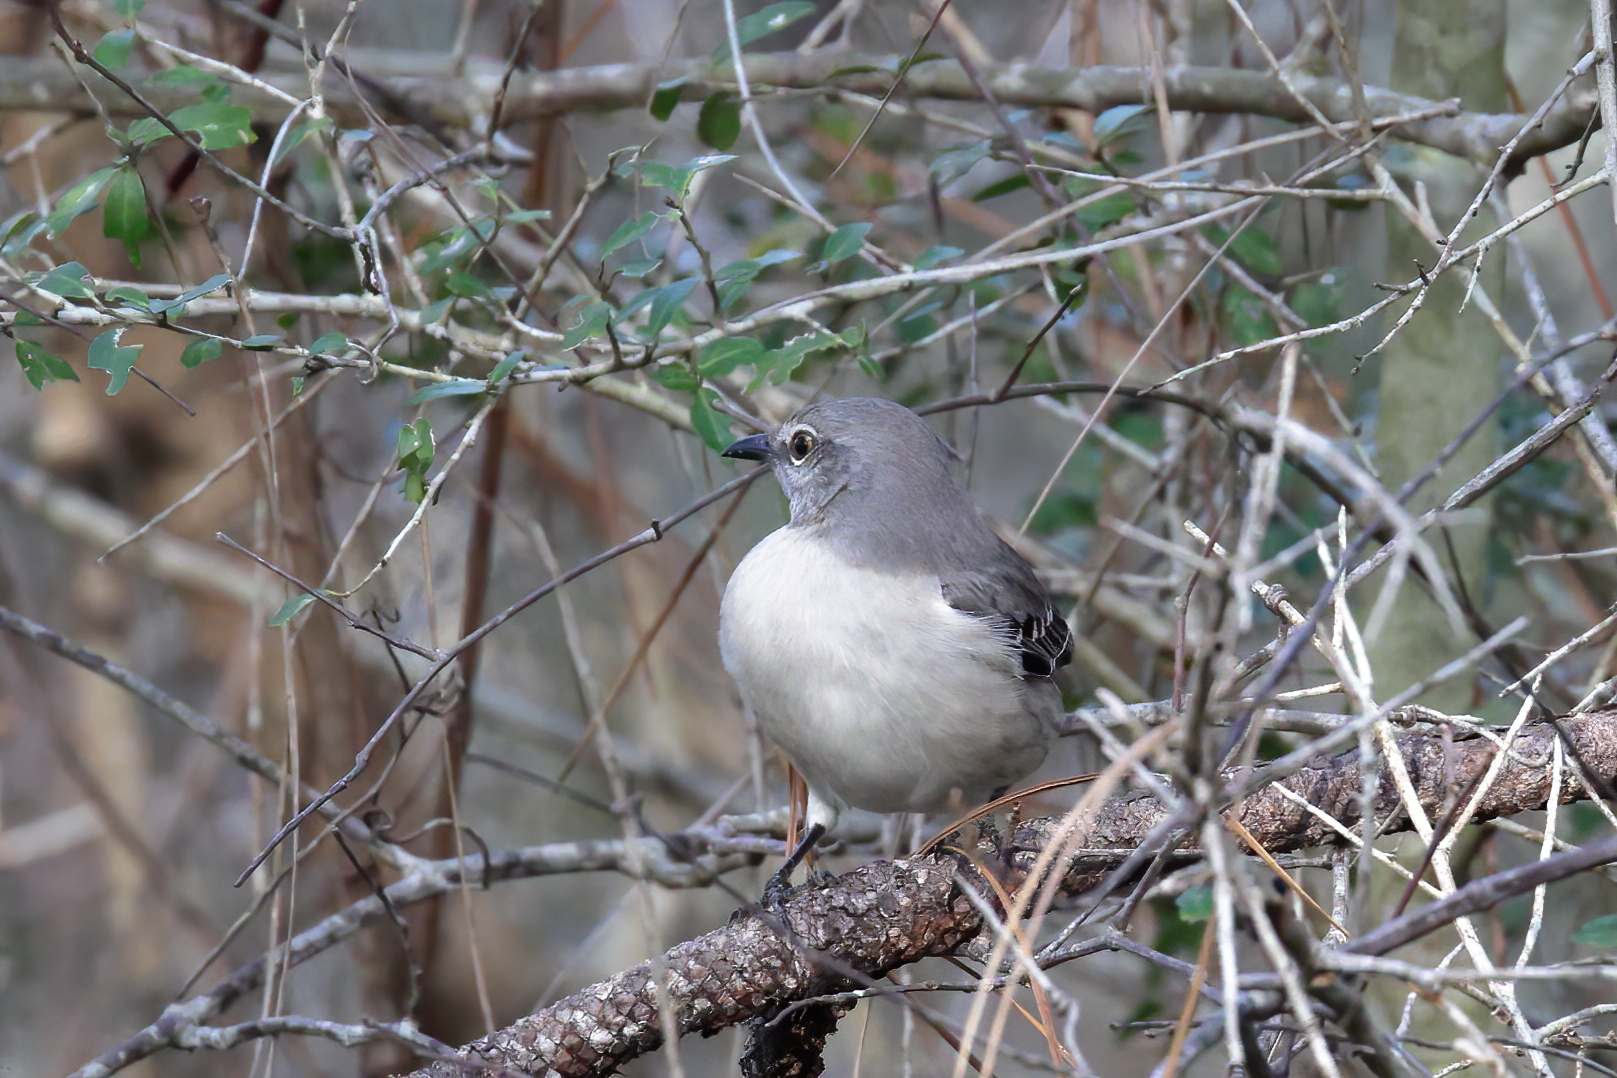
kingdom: Animalia
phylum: Chordata
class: Aves
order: Passeriformes
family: Mimidae
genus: Mimus
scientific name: Mimus polyglottos
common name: Northern mockingbird
